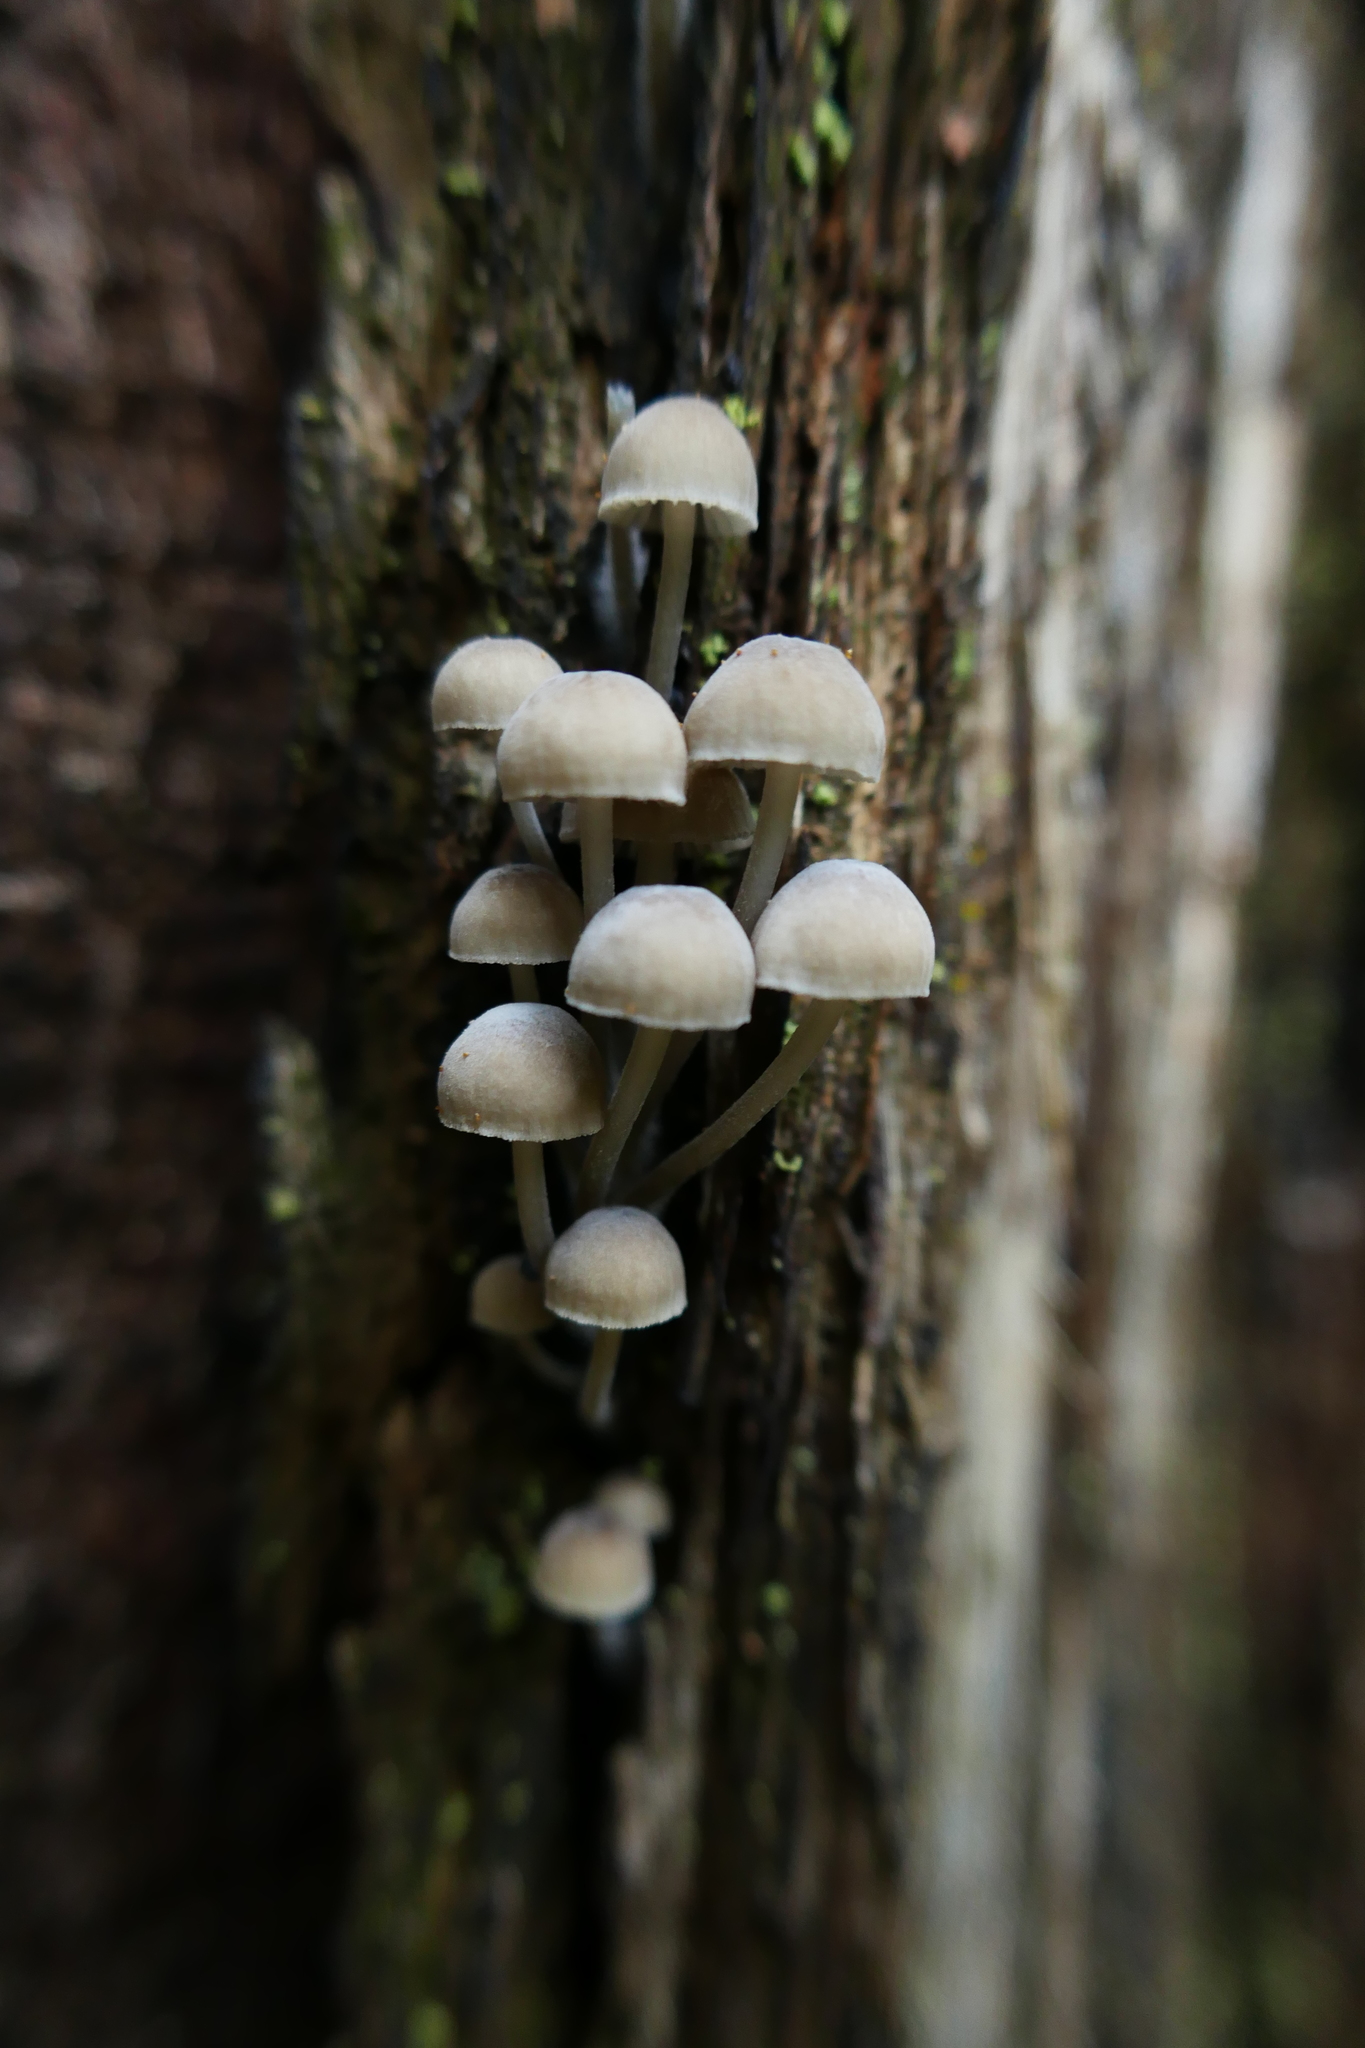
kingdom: Fungi
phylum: Basidiomycota
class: Agaricomycetes
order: Agaricales
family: Mycenaceae
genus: Mycena
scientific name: Mycena subgalericulata
